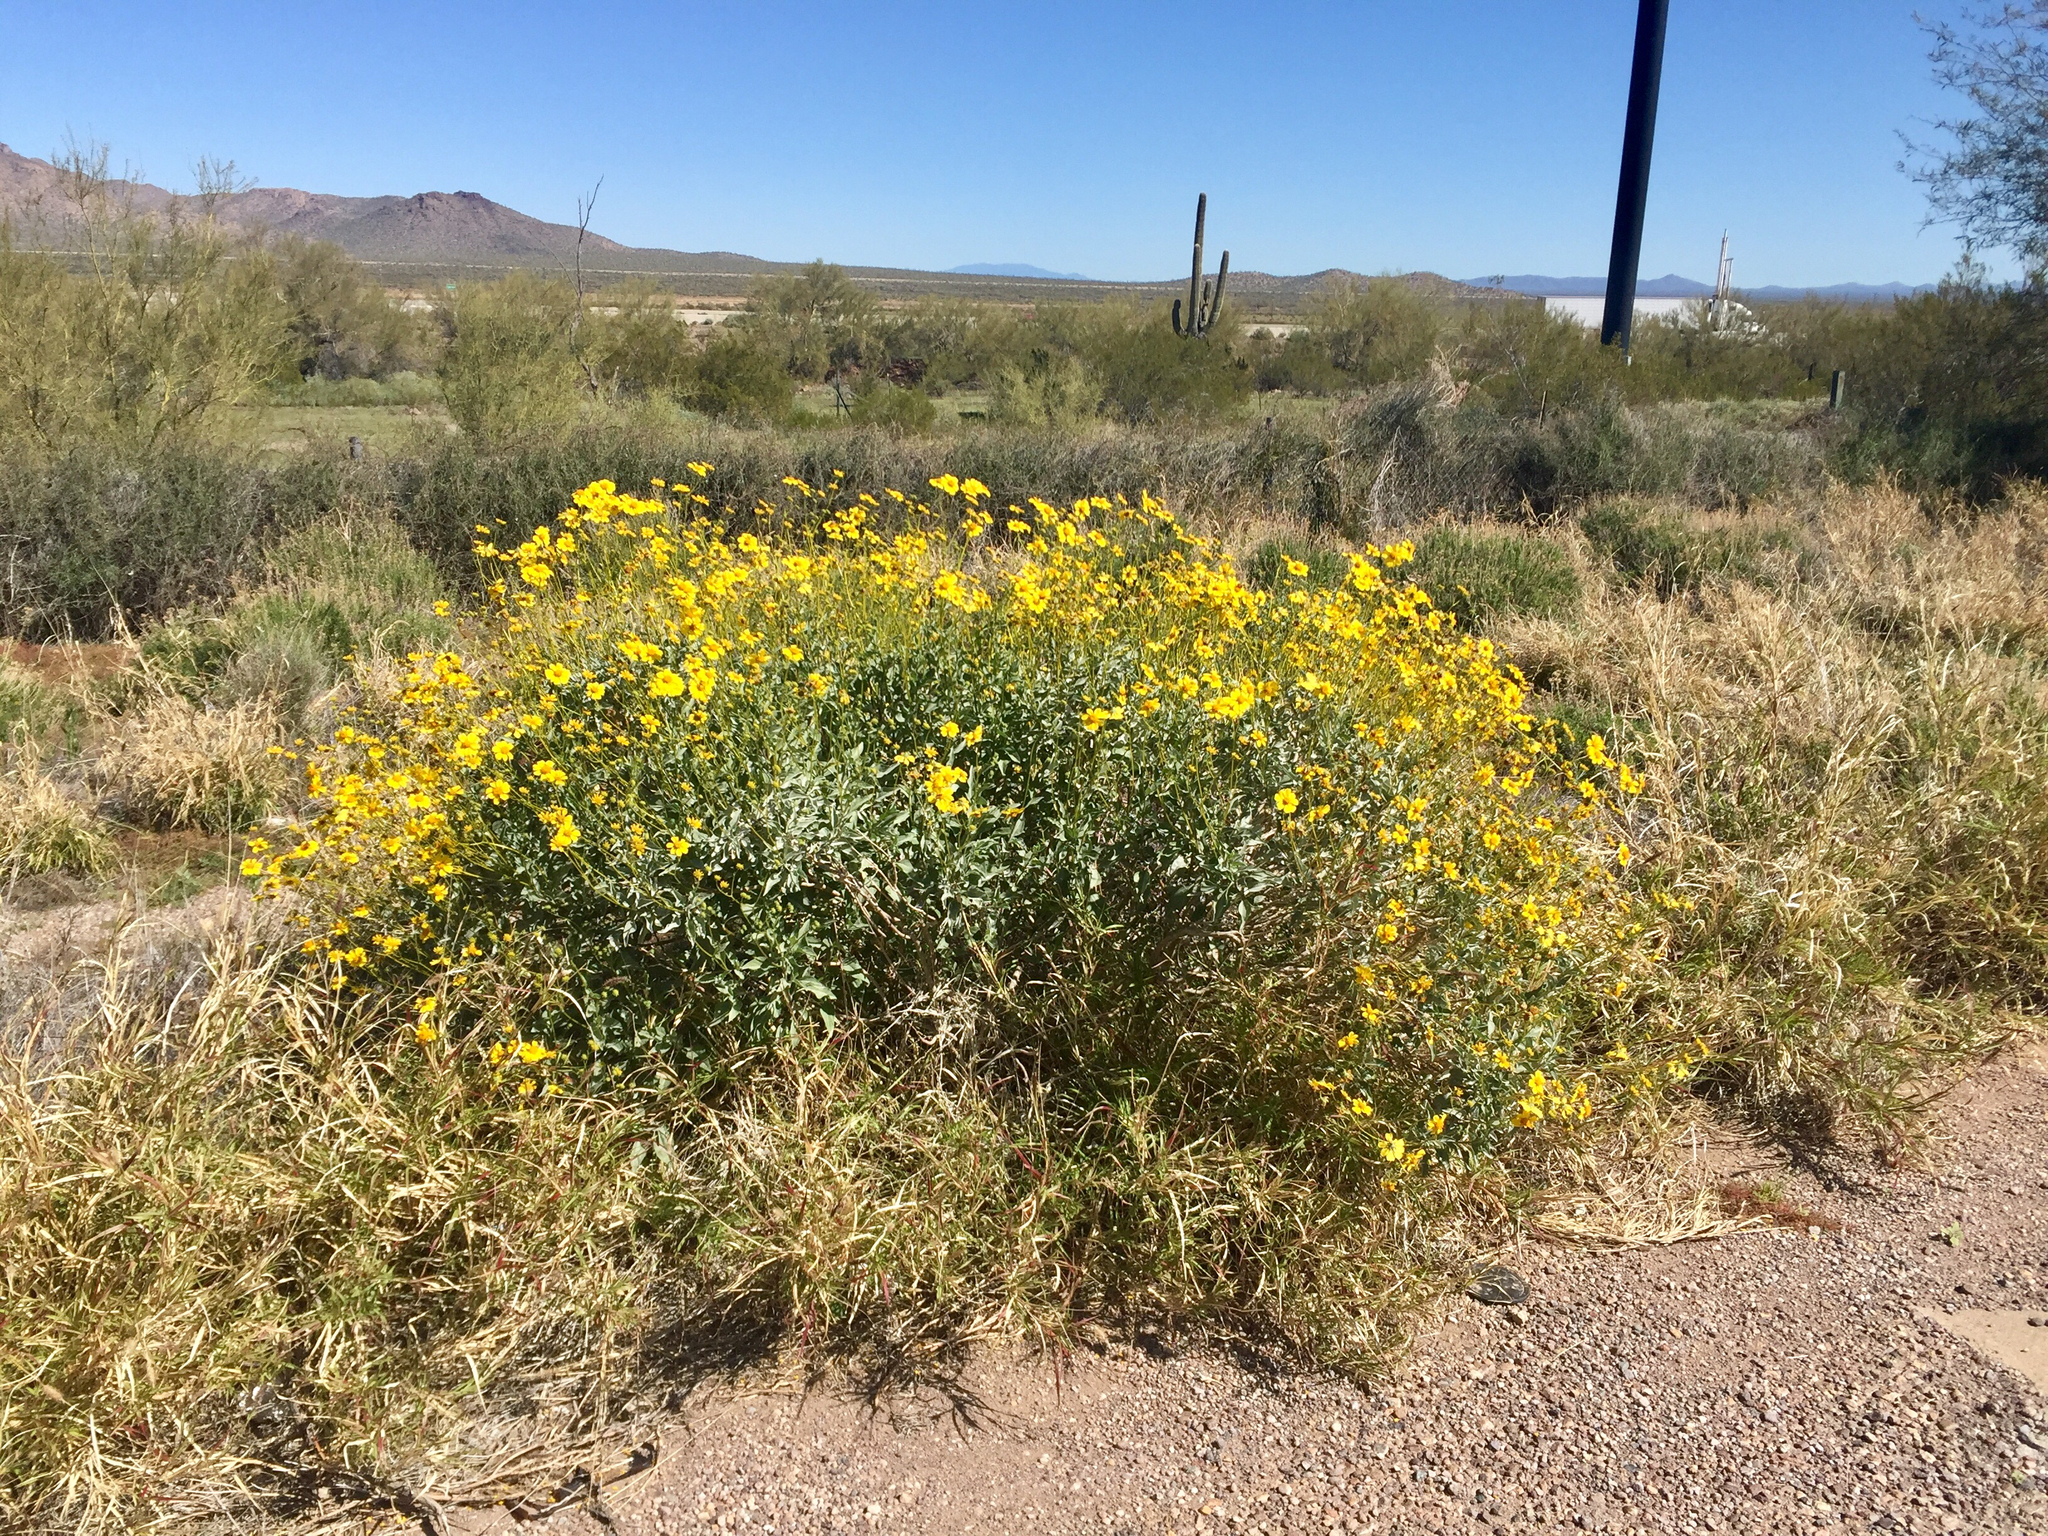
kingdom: Plantae
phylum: Tracheophyta
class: Magnoliopsida
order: Asterales
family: Asteraceae
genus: Encelia
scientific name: Encelia farinosa
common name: Brittlebush
